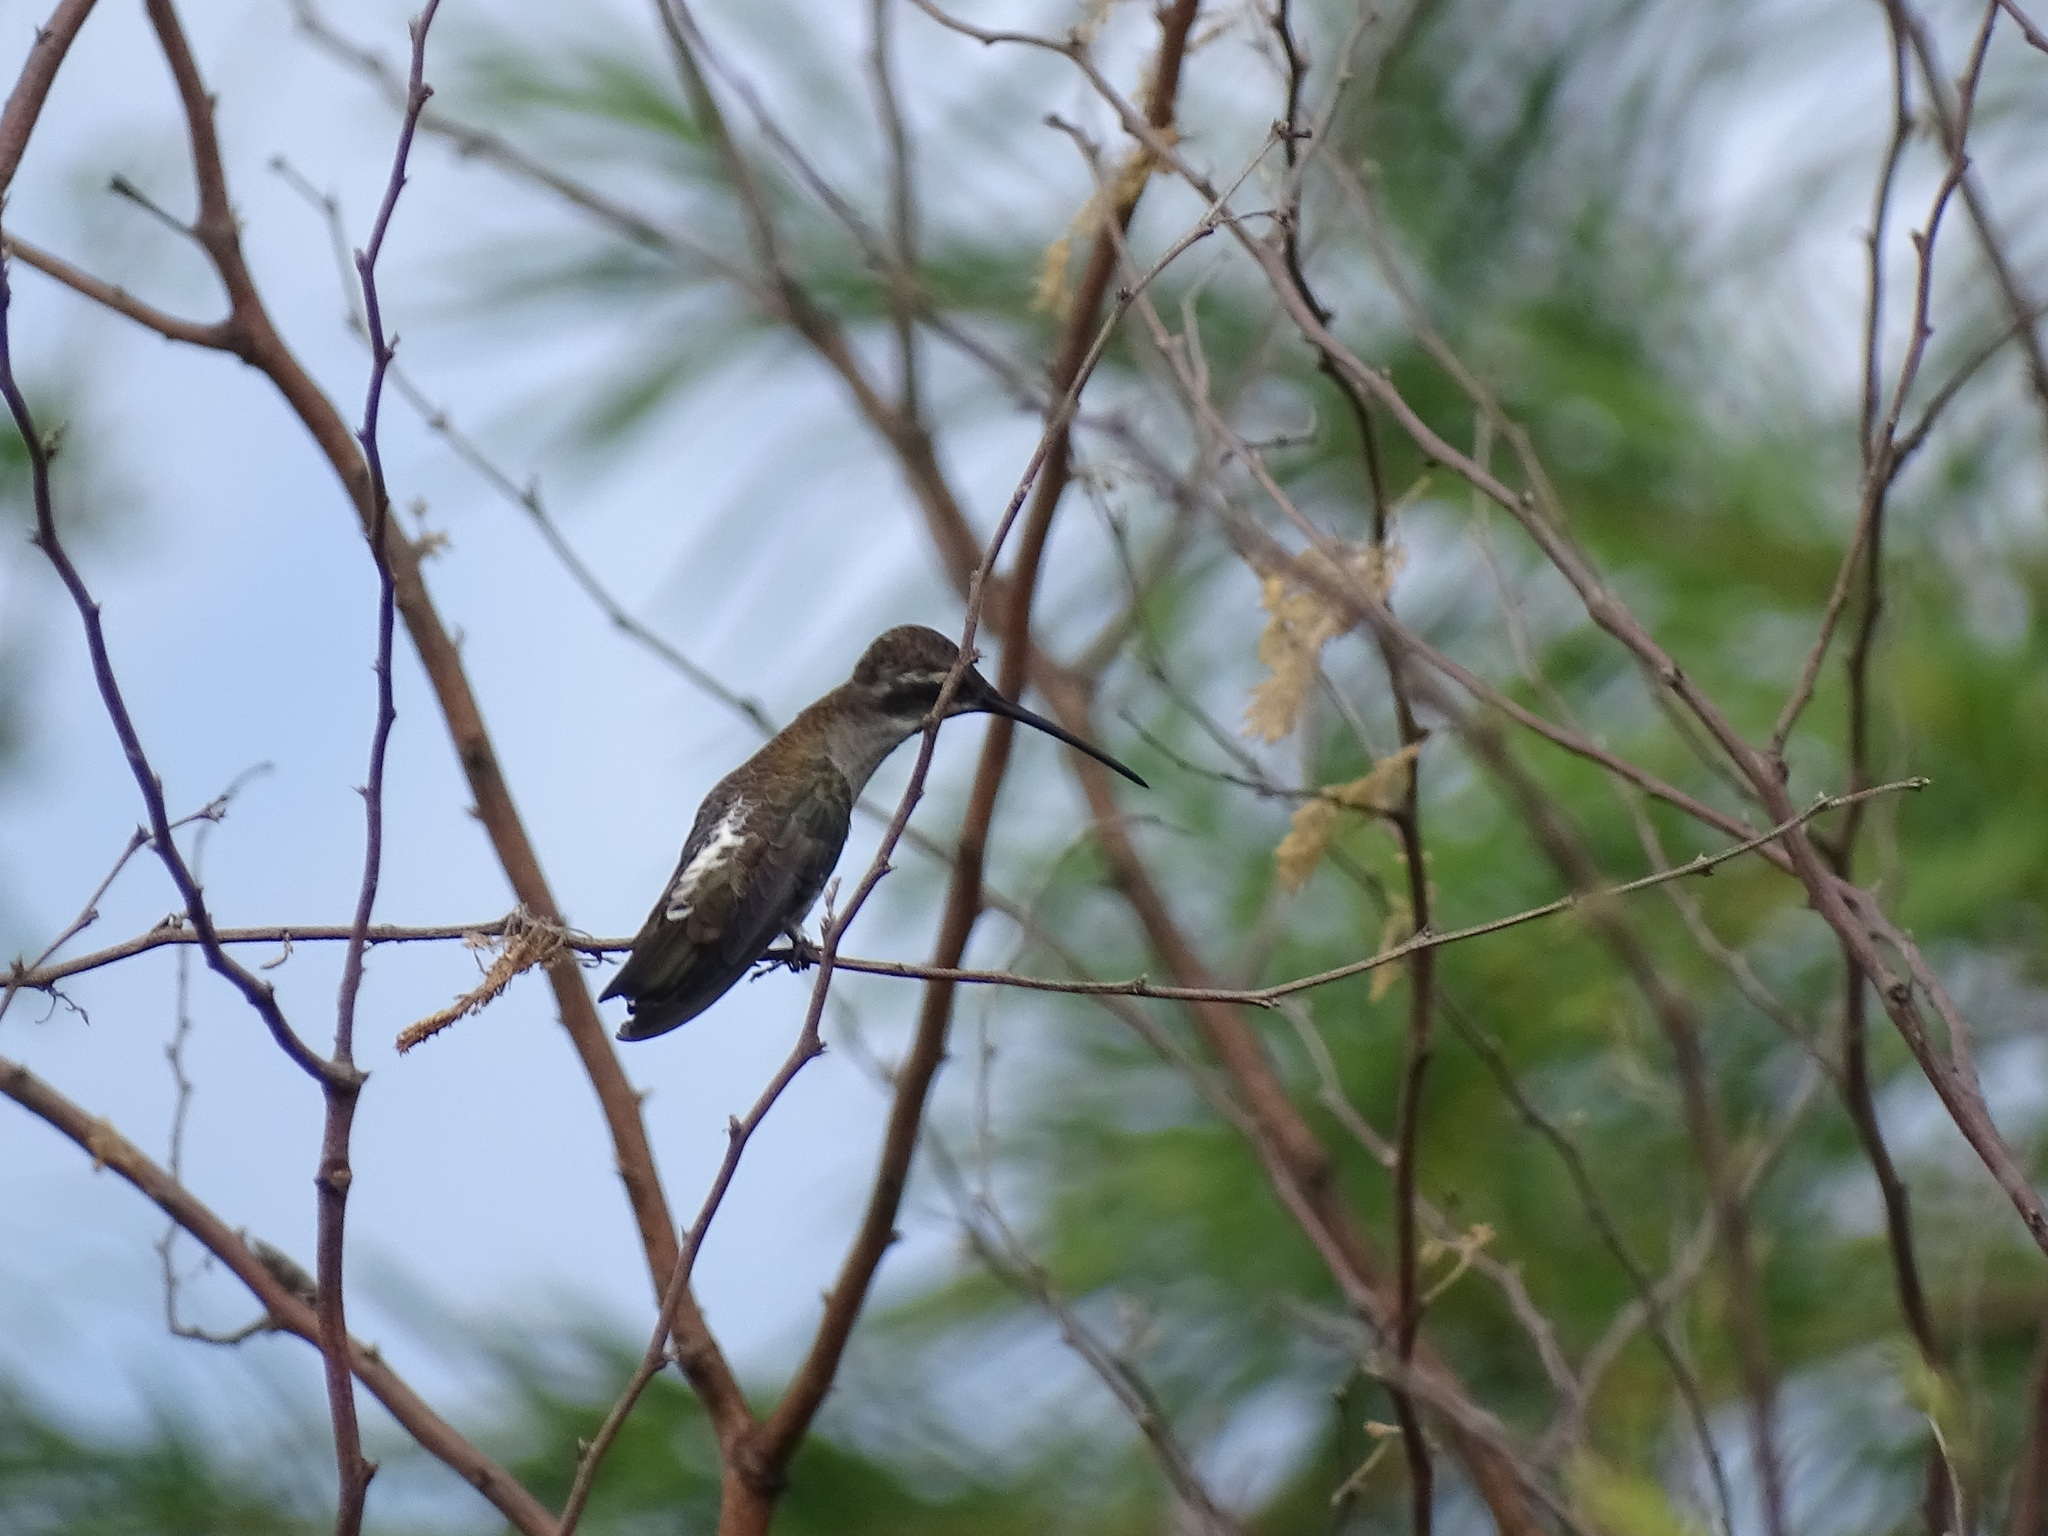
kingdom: Animalia
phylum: Chordata
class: Aves
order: Apodiformes
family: Trochilidae
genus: Heliomaster
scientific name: Heliomaster constantii
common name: Plain-capped starthroat
